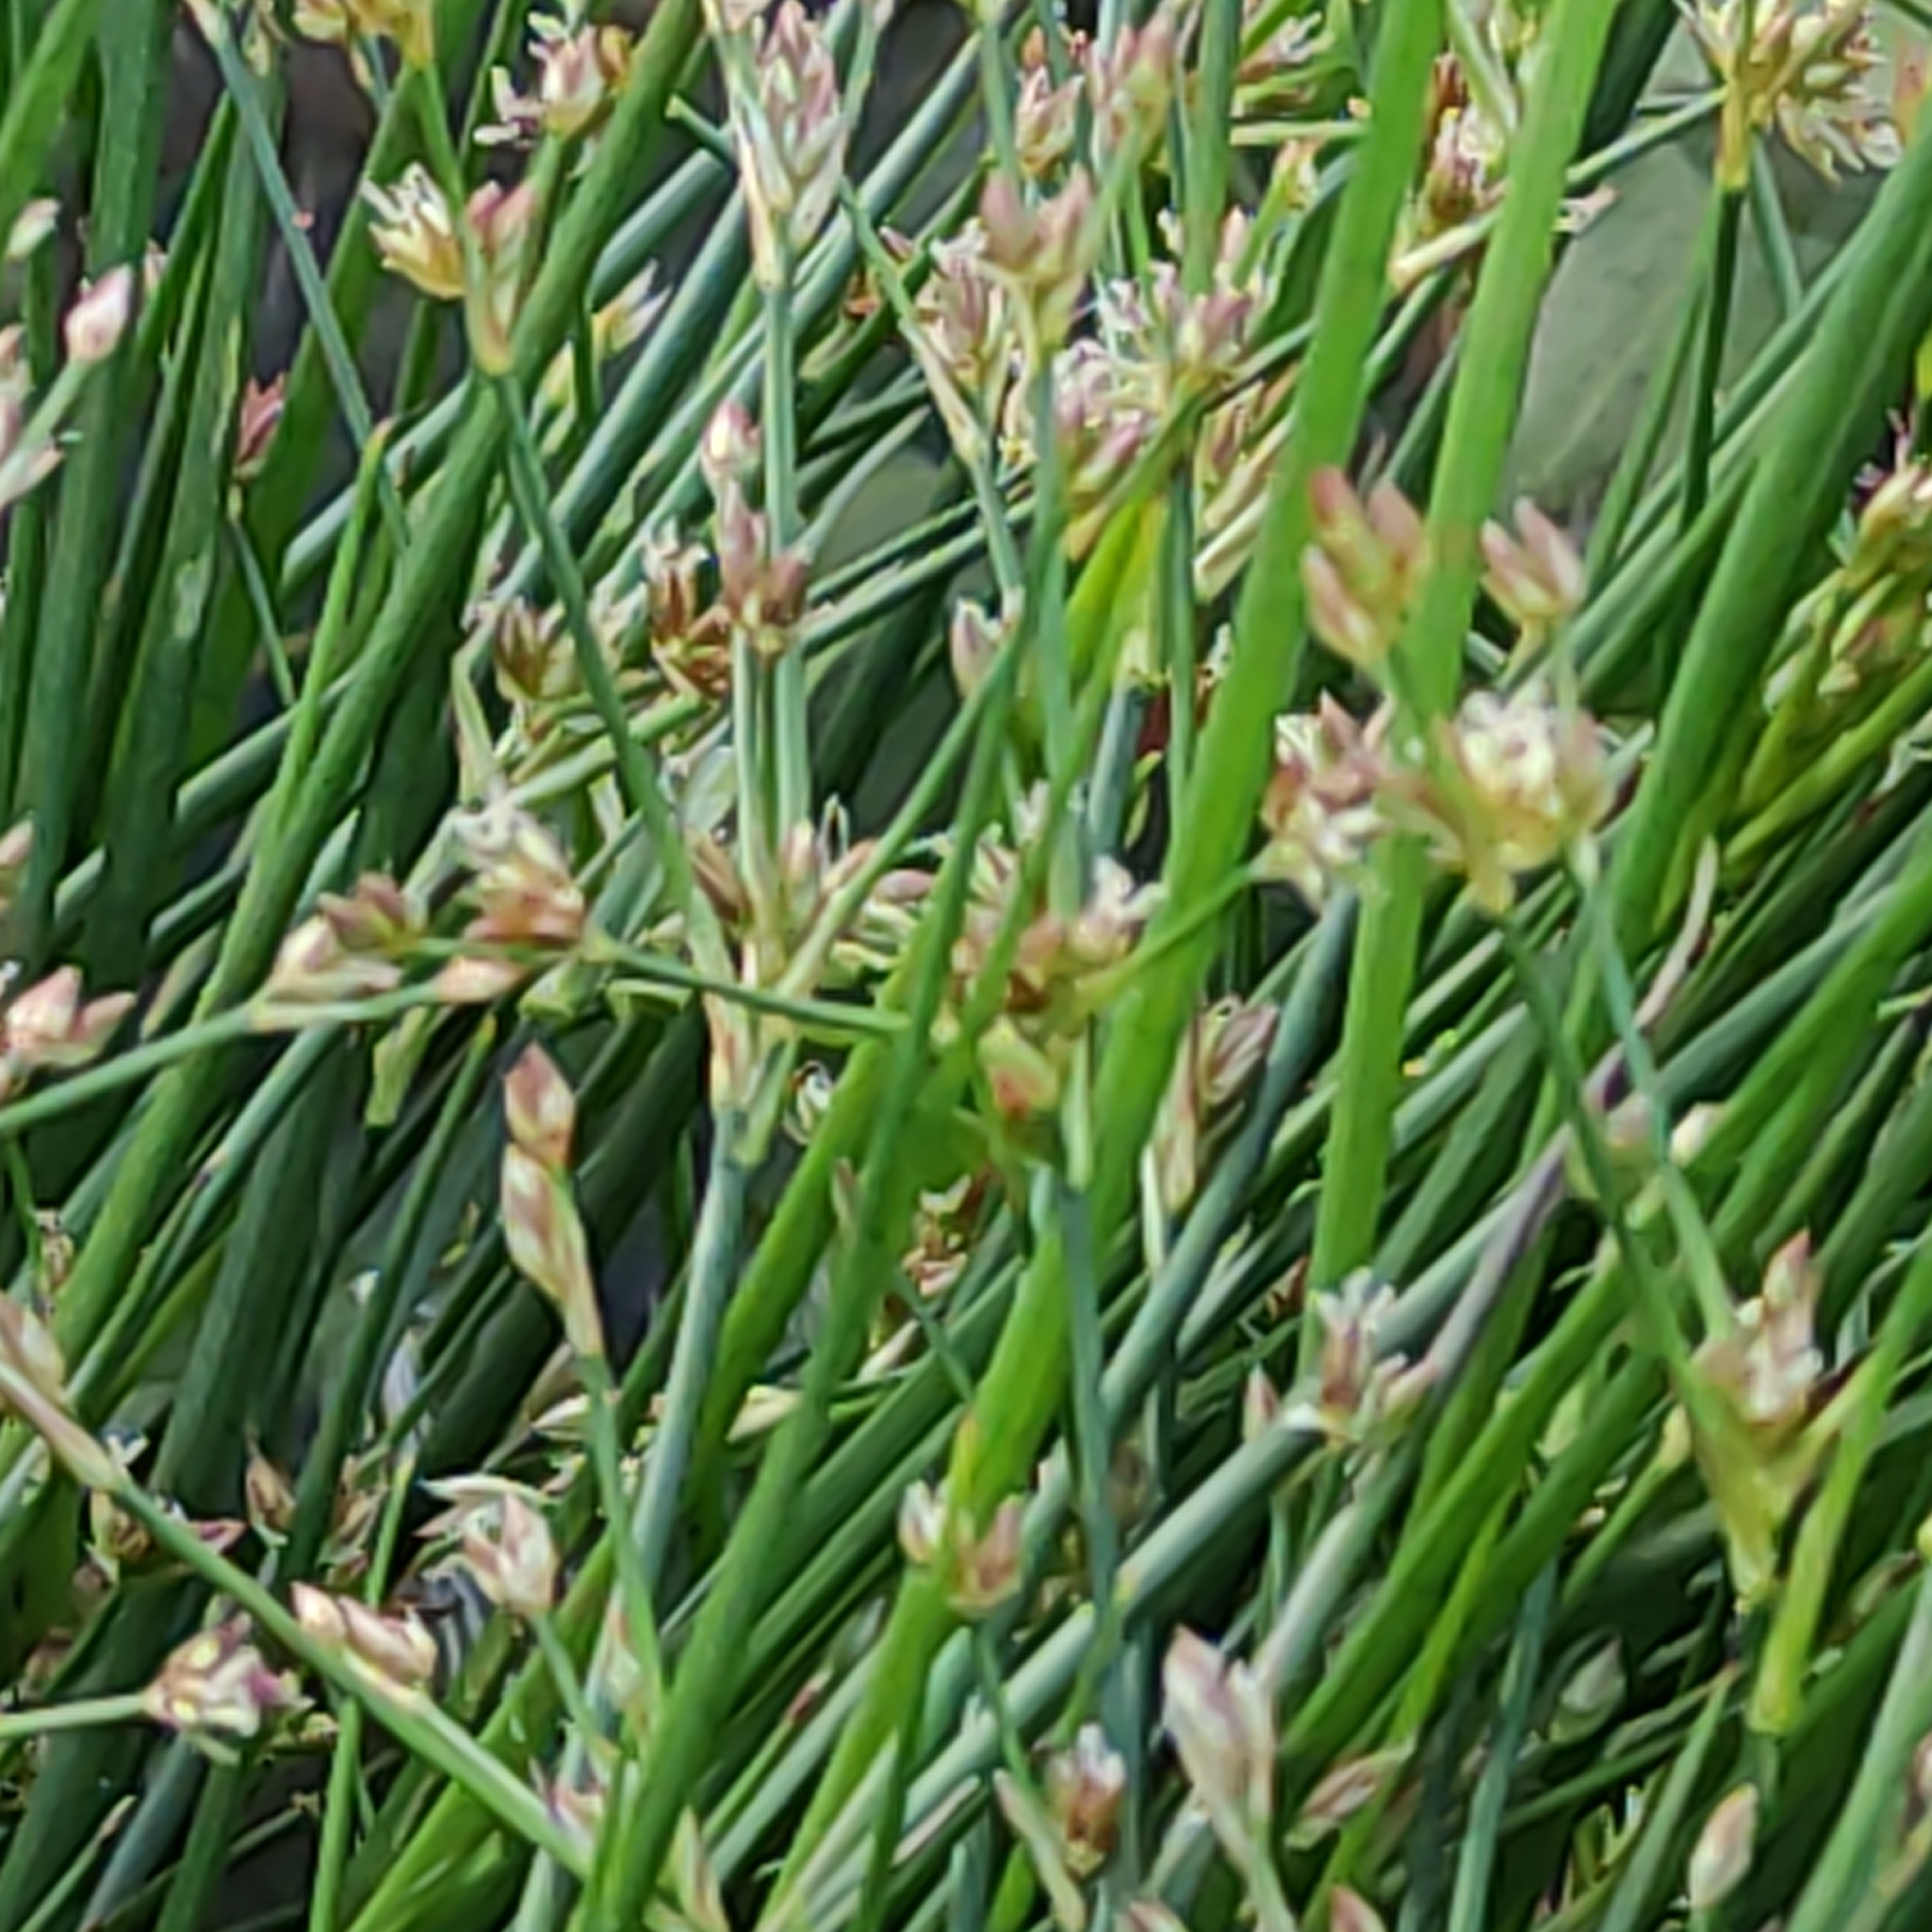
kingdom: Plantae
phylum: Tracheophyta
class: Liliopsida
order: Poales
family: Juncaceae
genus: Juncus
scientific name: Juncus articulatus
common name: Jointed rush
